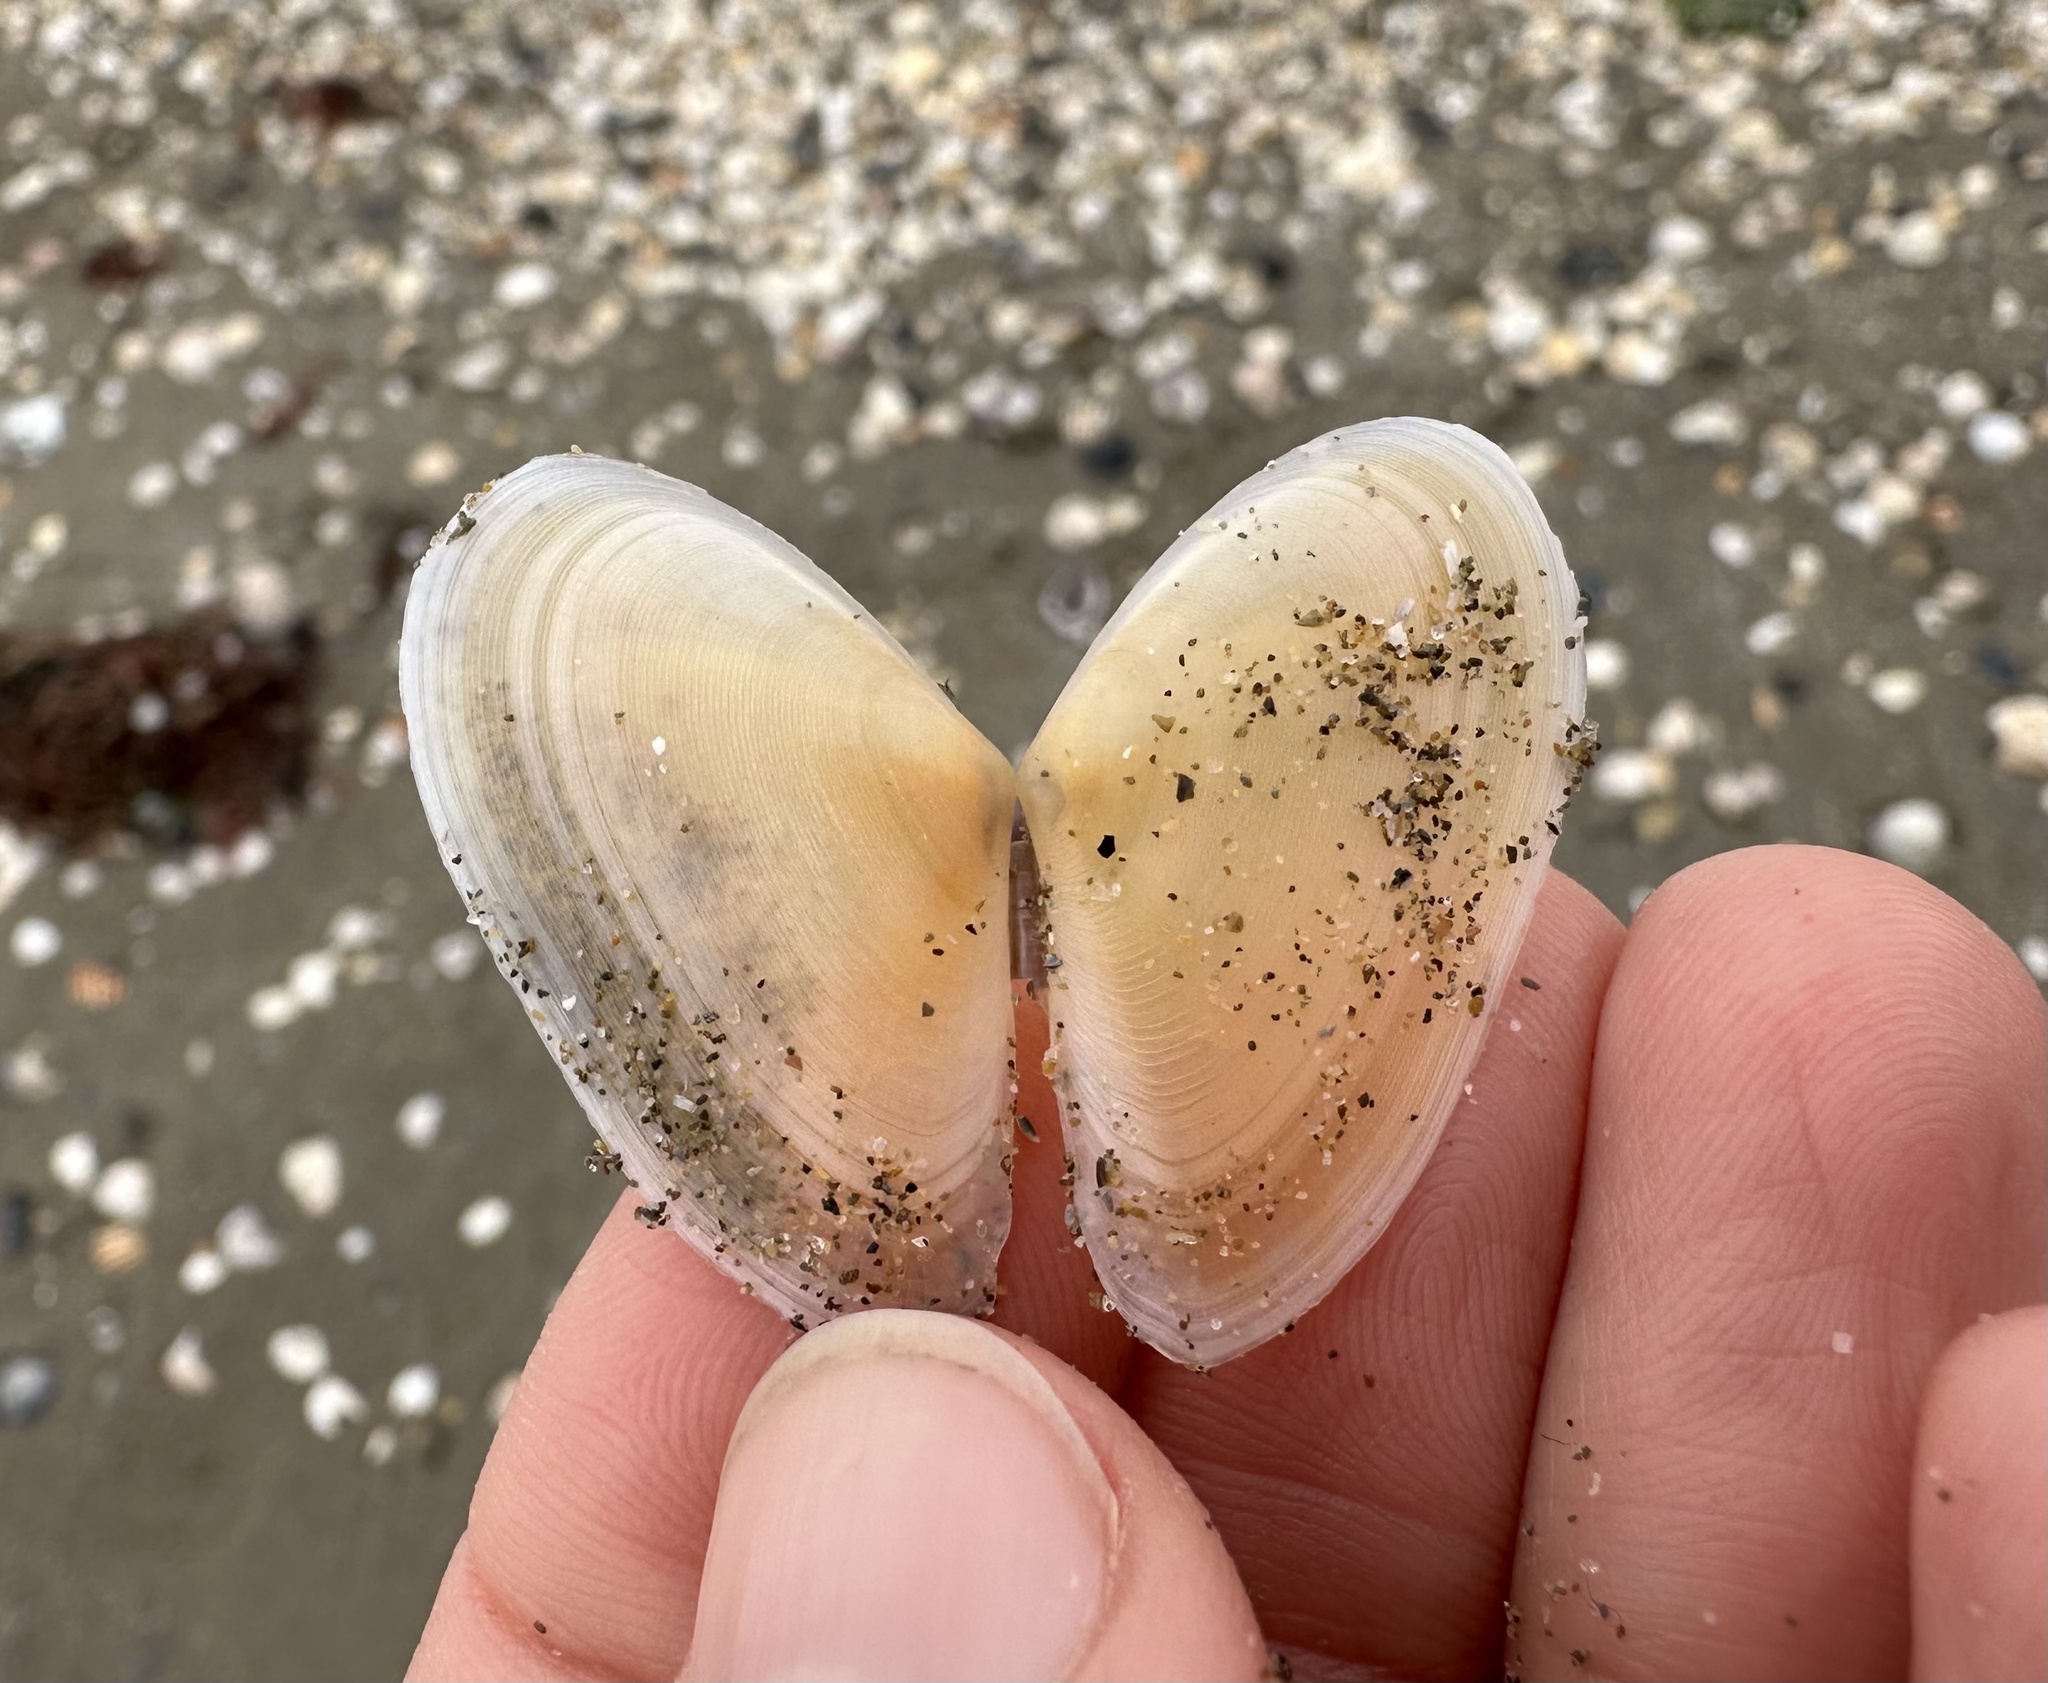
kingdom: Animalia
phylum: Mollusca
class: Bivalvia
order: Cardiida
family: Tellinidae
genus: Peronidia
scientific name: Peronidia albicans
